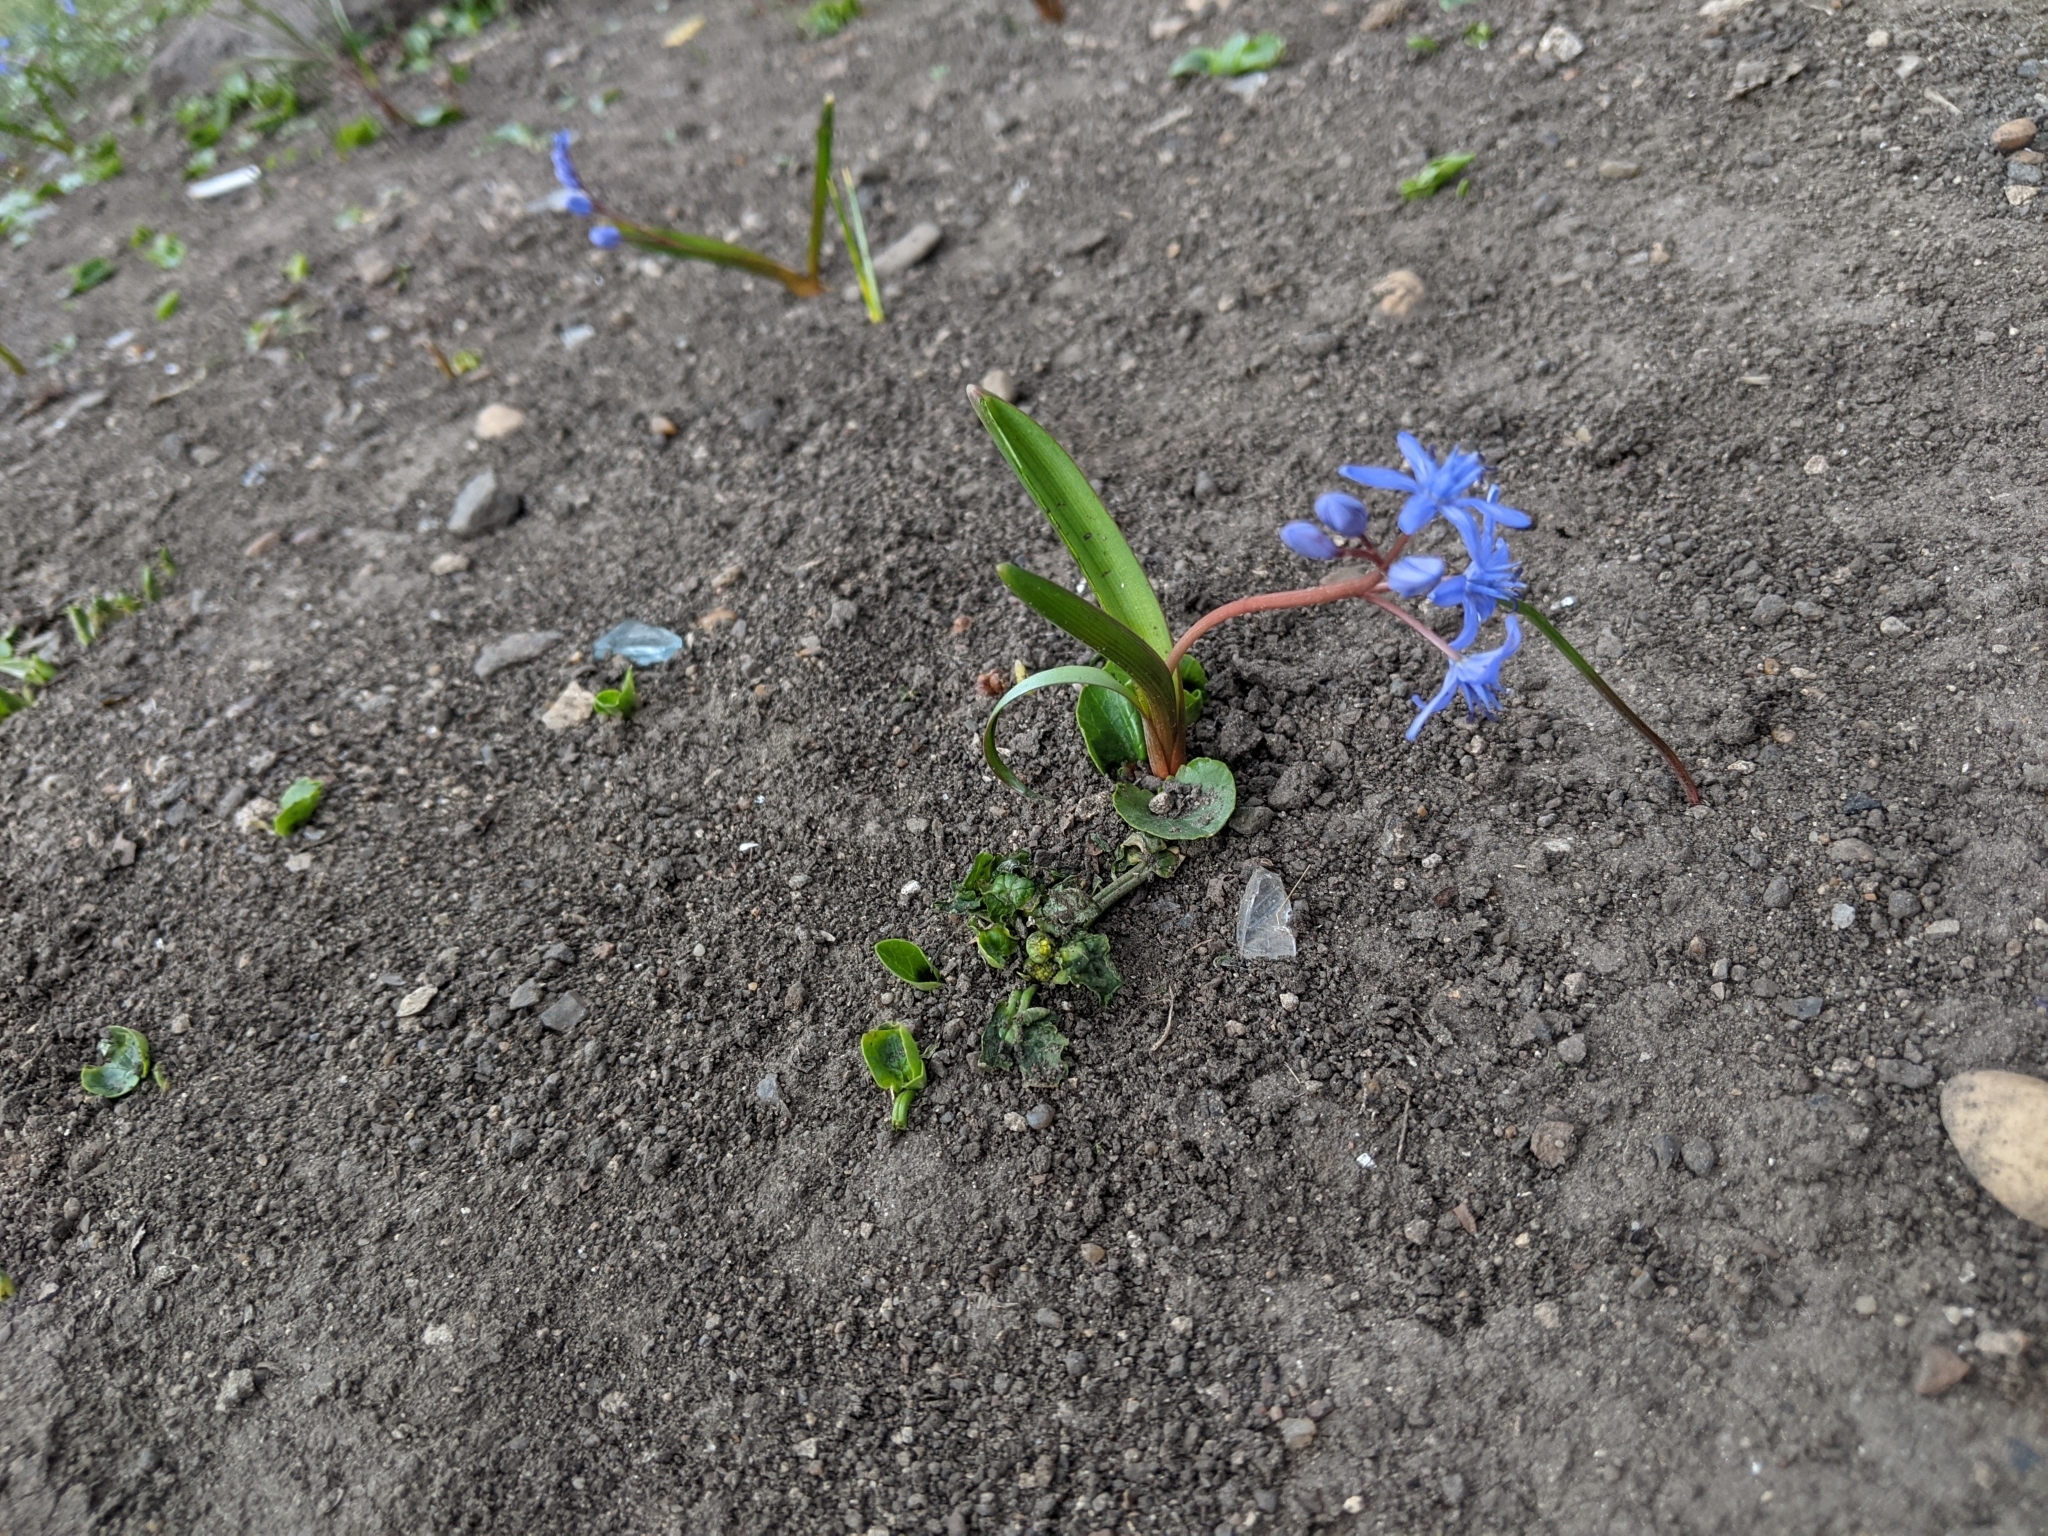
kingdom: Plantae
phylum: Tracheophyta
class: Liliopsida
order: Asparagales
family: Asparagaceae
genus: Scilla
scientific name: Scilla bifolia
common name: Alpine squill
